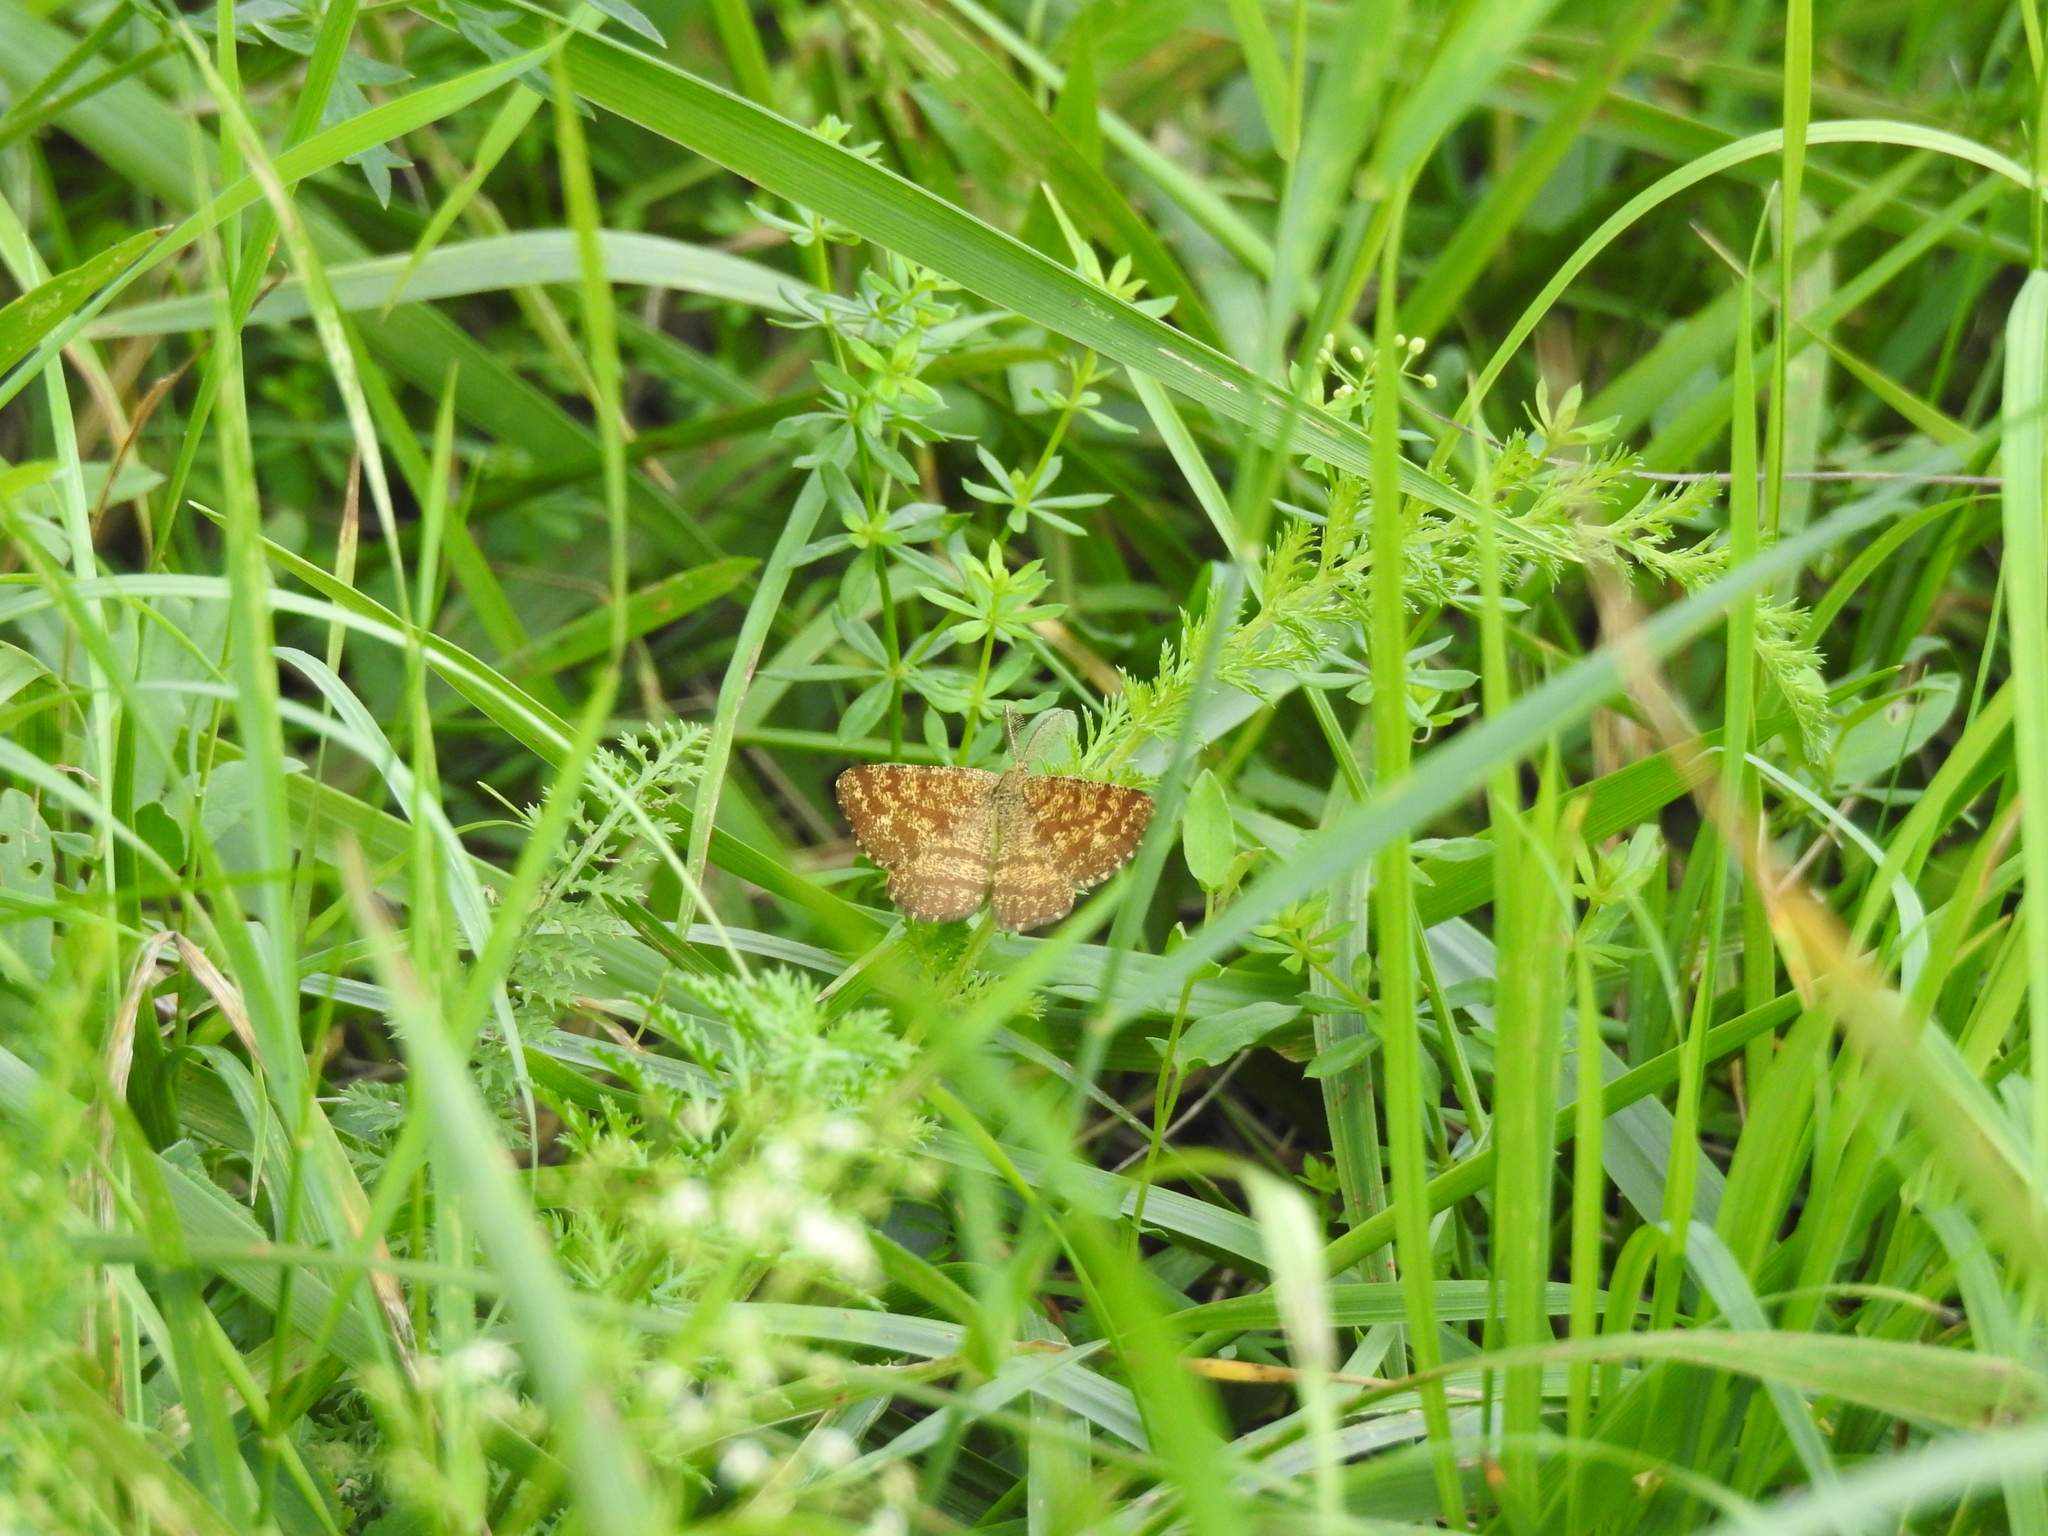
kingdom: Animalia
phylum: Arthropoda
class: Insecta
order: Lepidoptera
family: Geometridae
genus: Ematurga
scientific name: Ematurga atomaria
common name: Common heath
